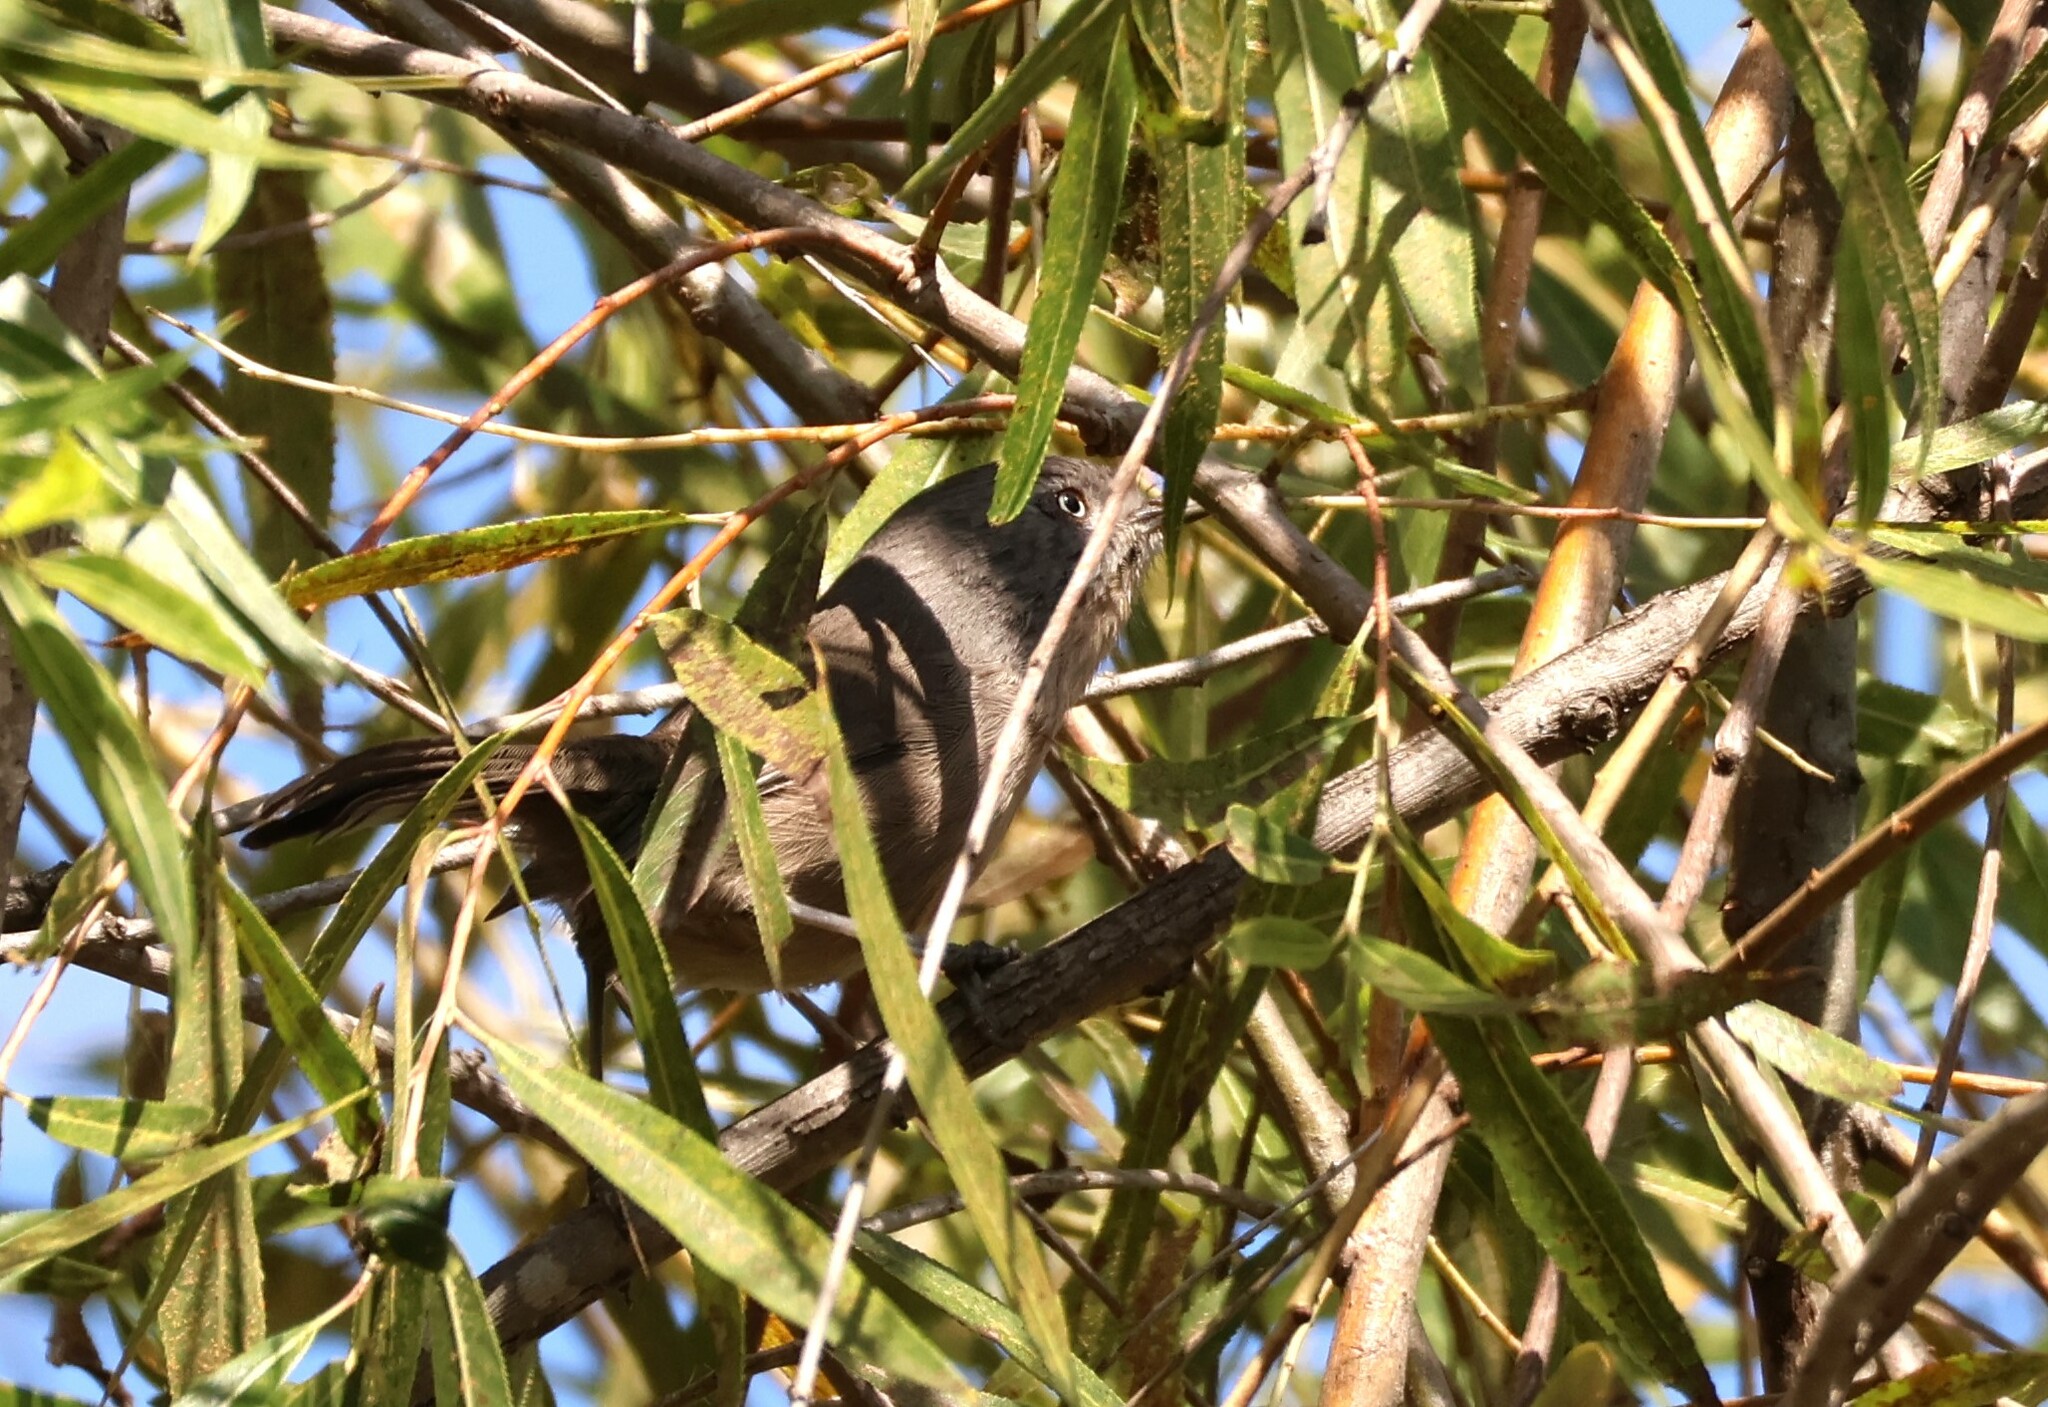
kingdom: Animalia
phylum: Chordata
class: Aves
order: Passeriformes
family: Sylviidae
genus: Chamaea
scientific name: Chamaea fasciata
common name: Wrentit
